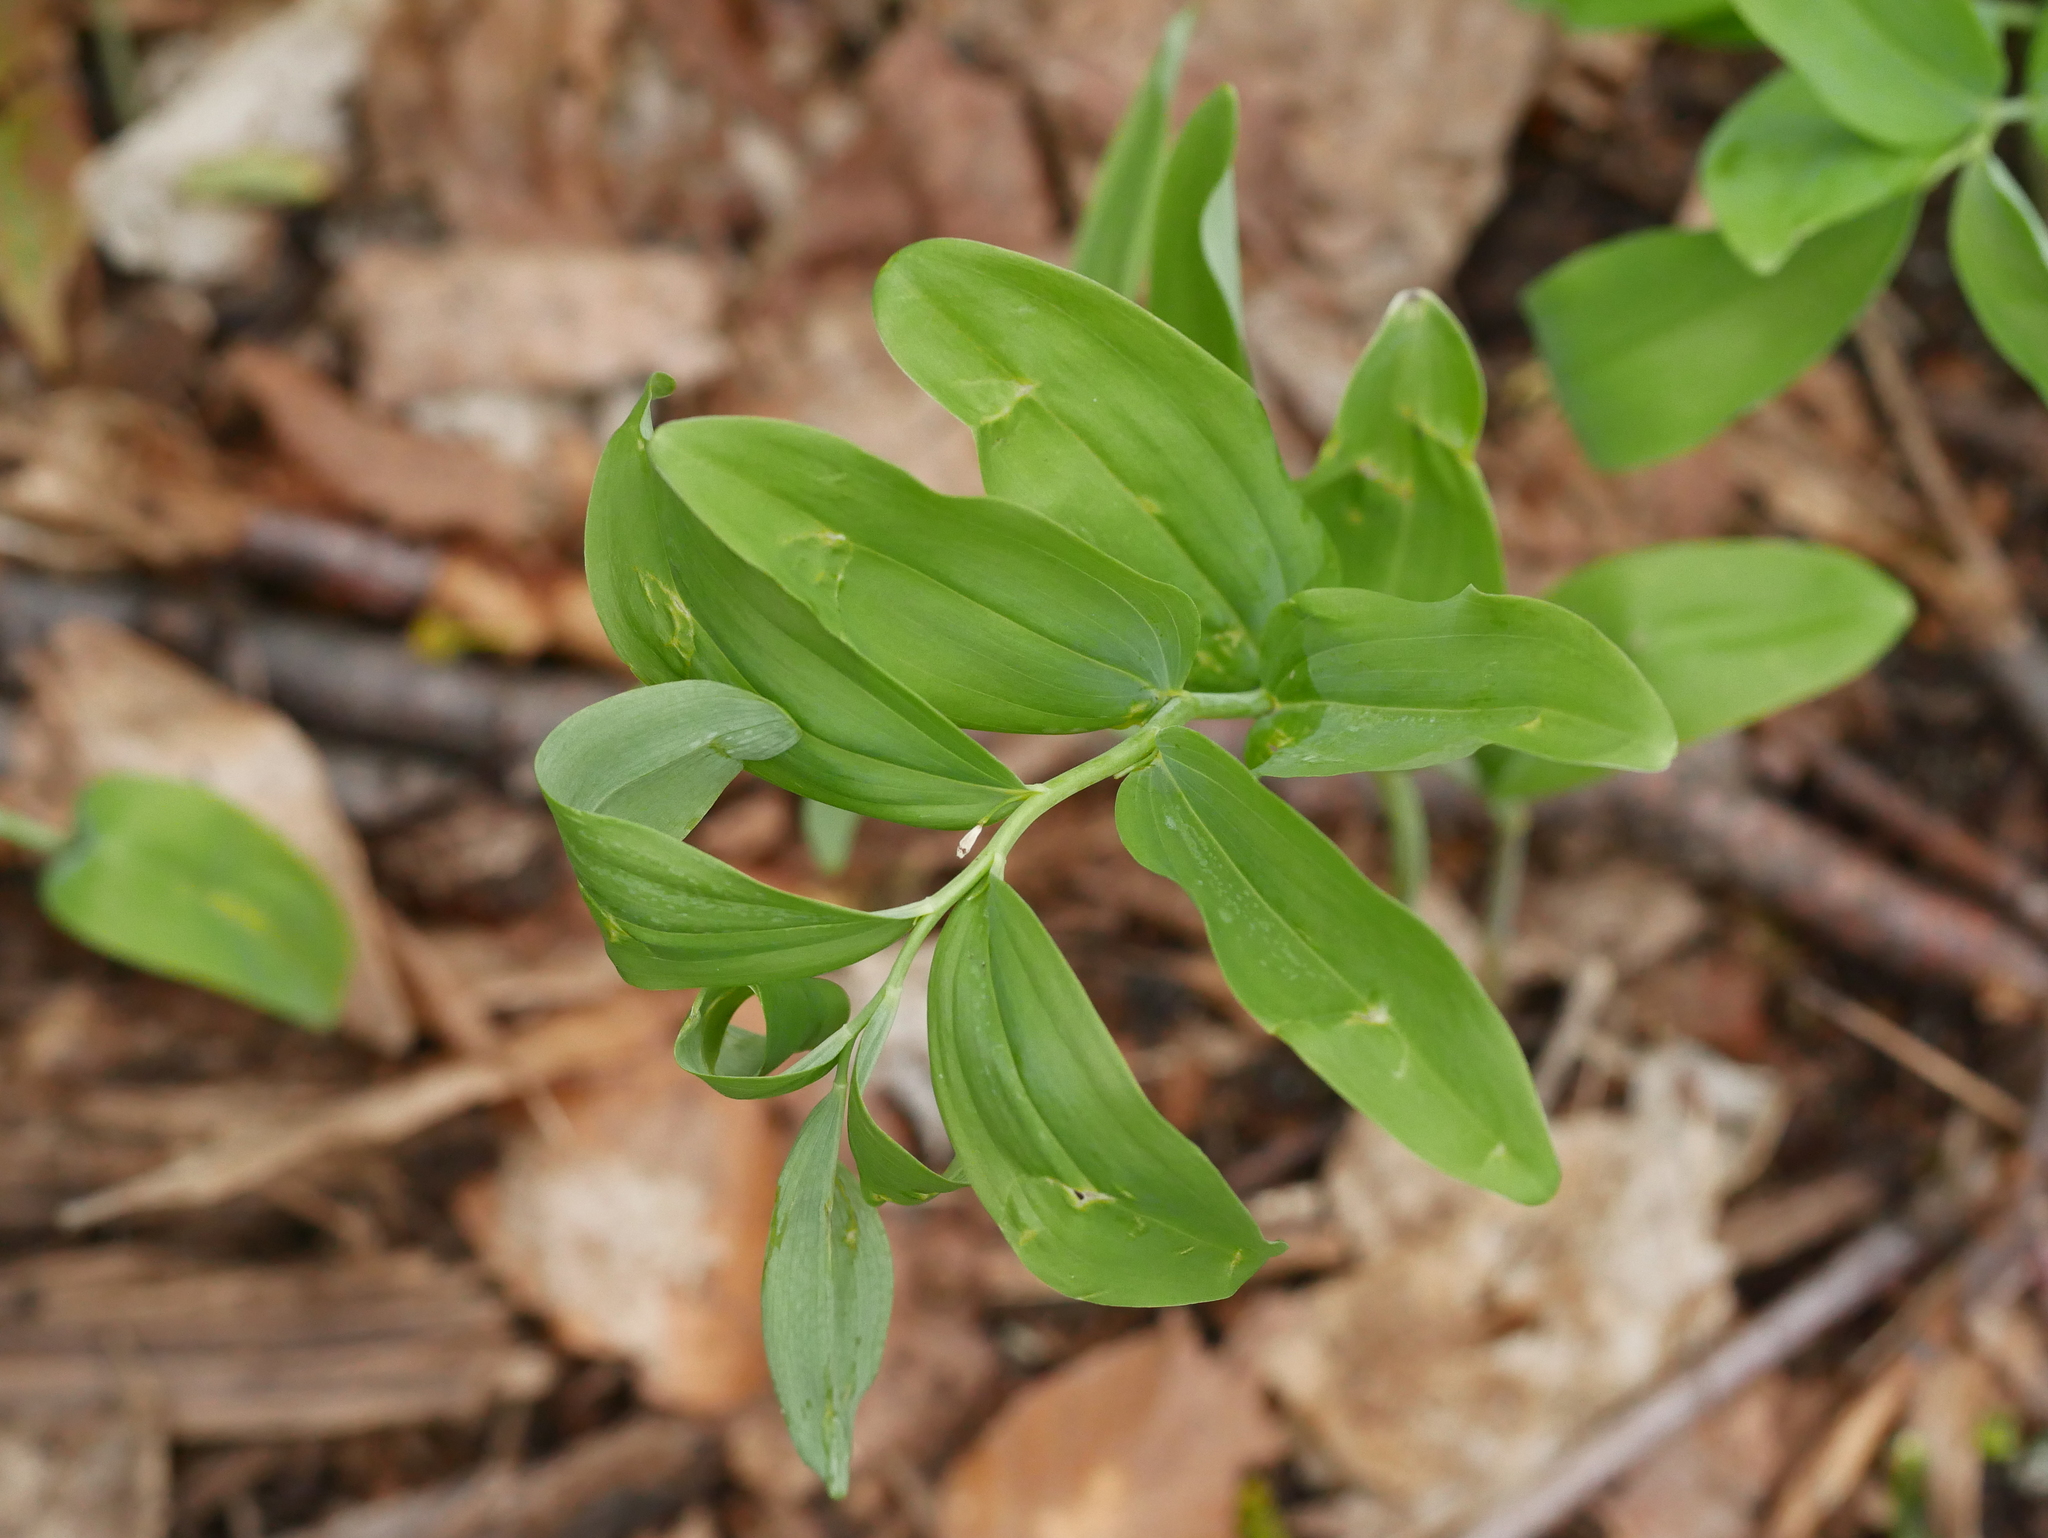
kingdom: Plantae
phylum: Tracheophyta
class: Liliopsida
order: Asparagales
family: Asparagaceae
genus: Polygonatum
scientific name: Polygonatum multiflorum
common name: Solomon's-seal
